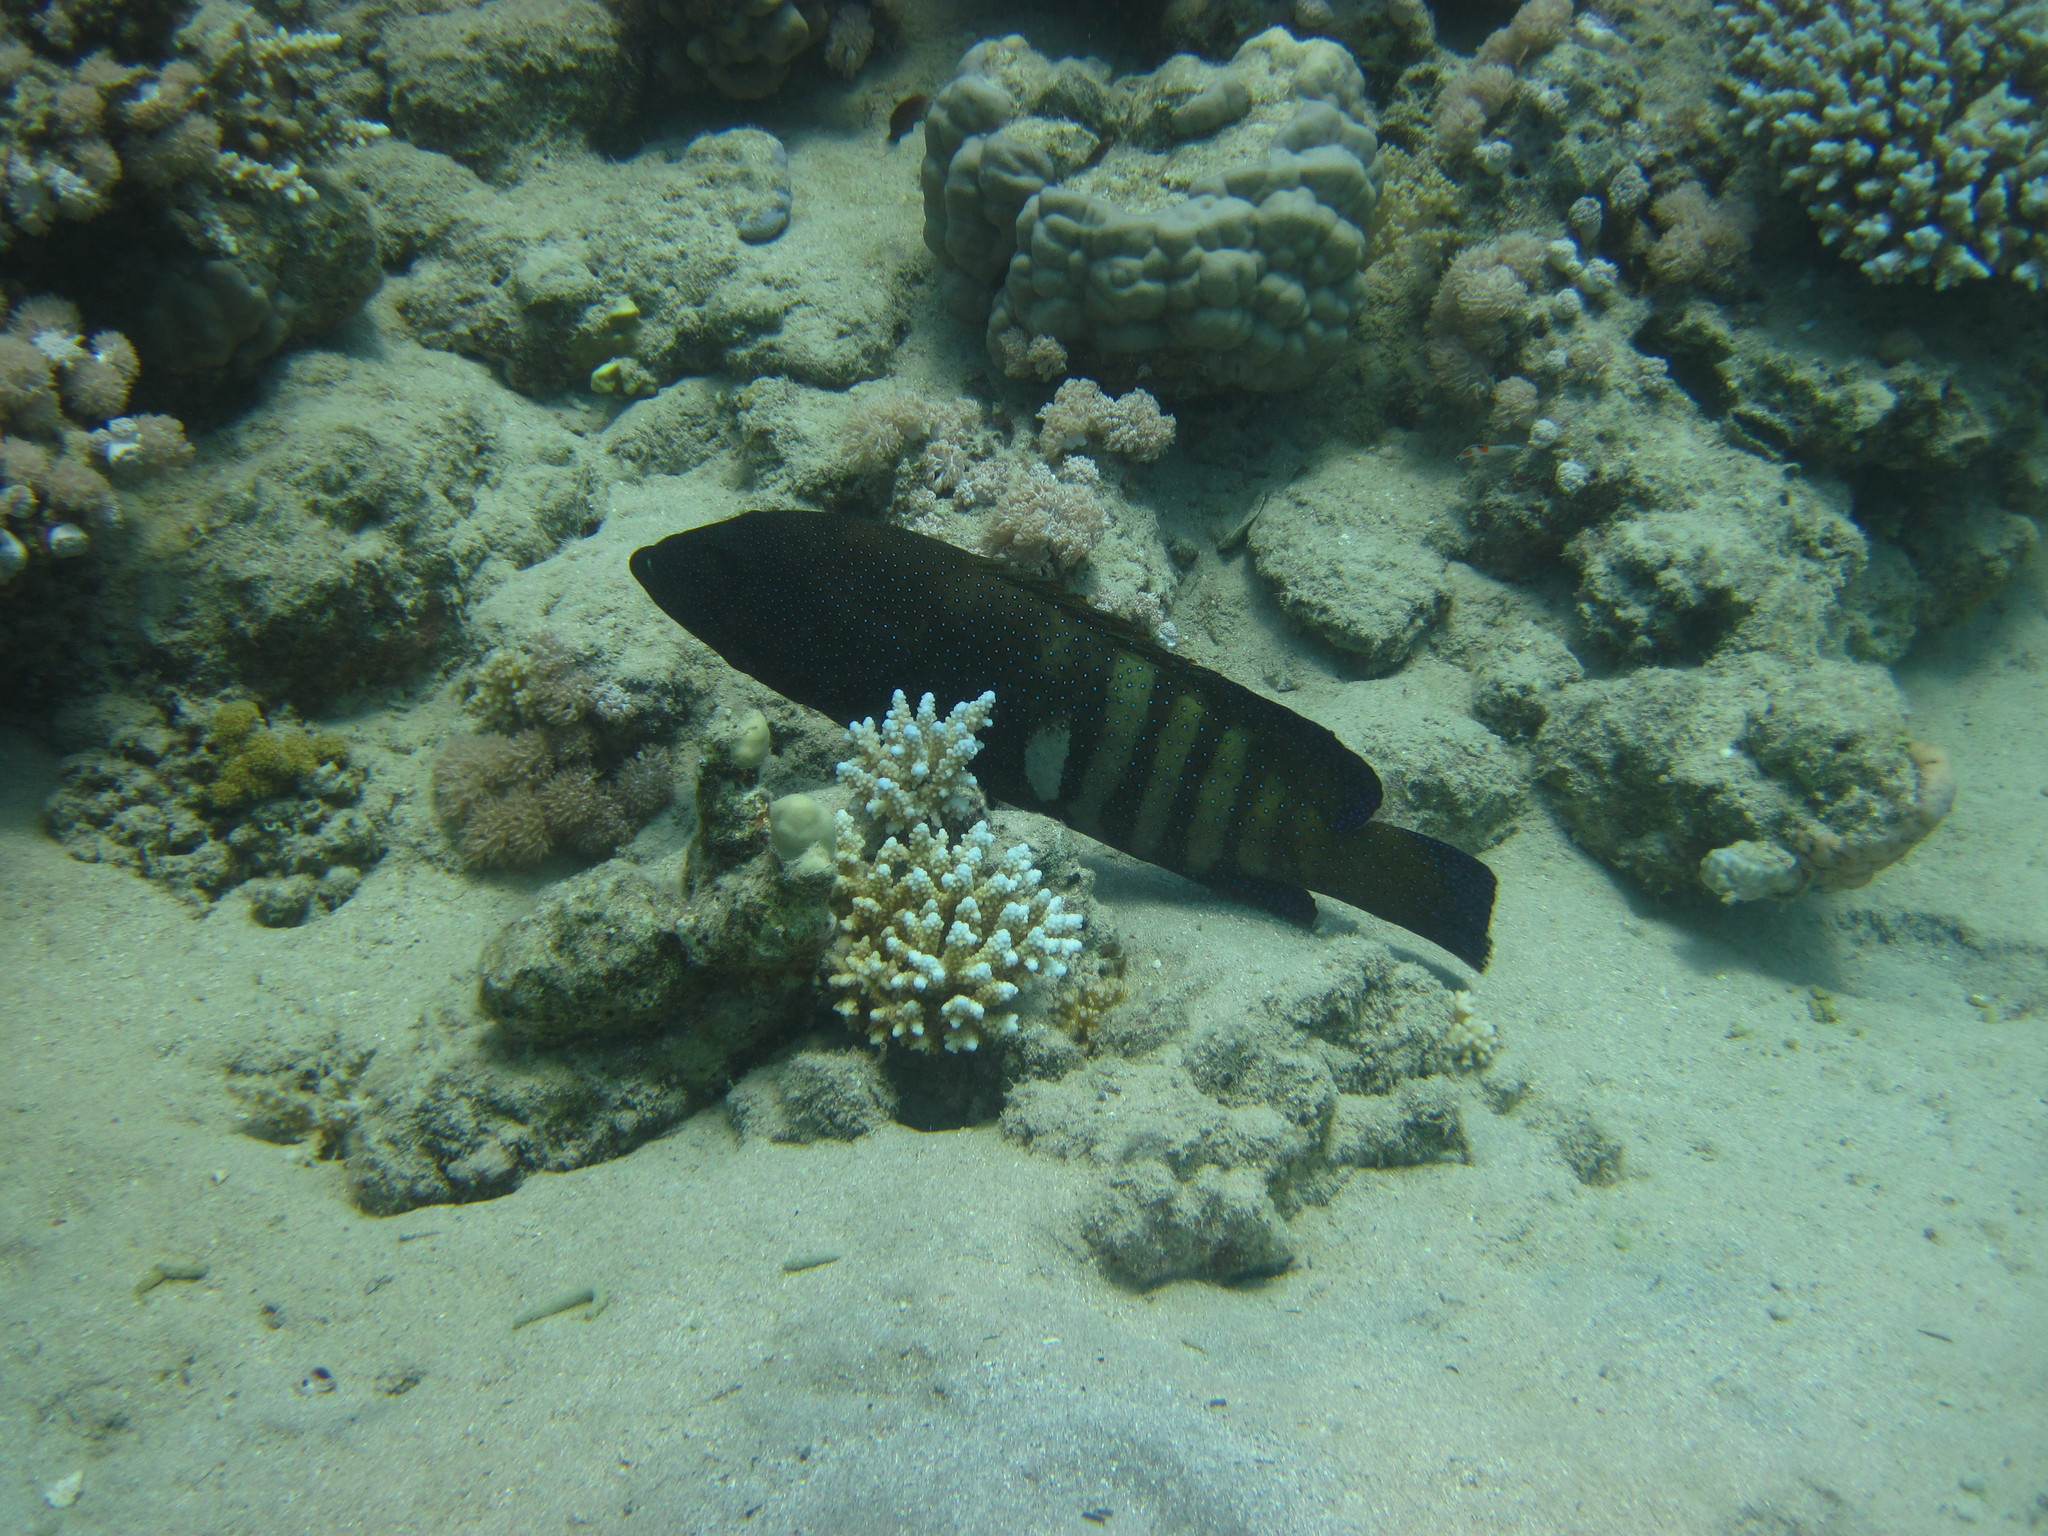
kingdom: Animalia
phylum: Chordata
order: Perciformes
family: Serranidae
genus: Cephalopholis
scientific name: Cephalopholis argus
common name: Peacock grouper
